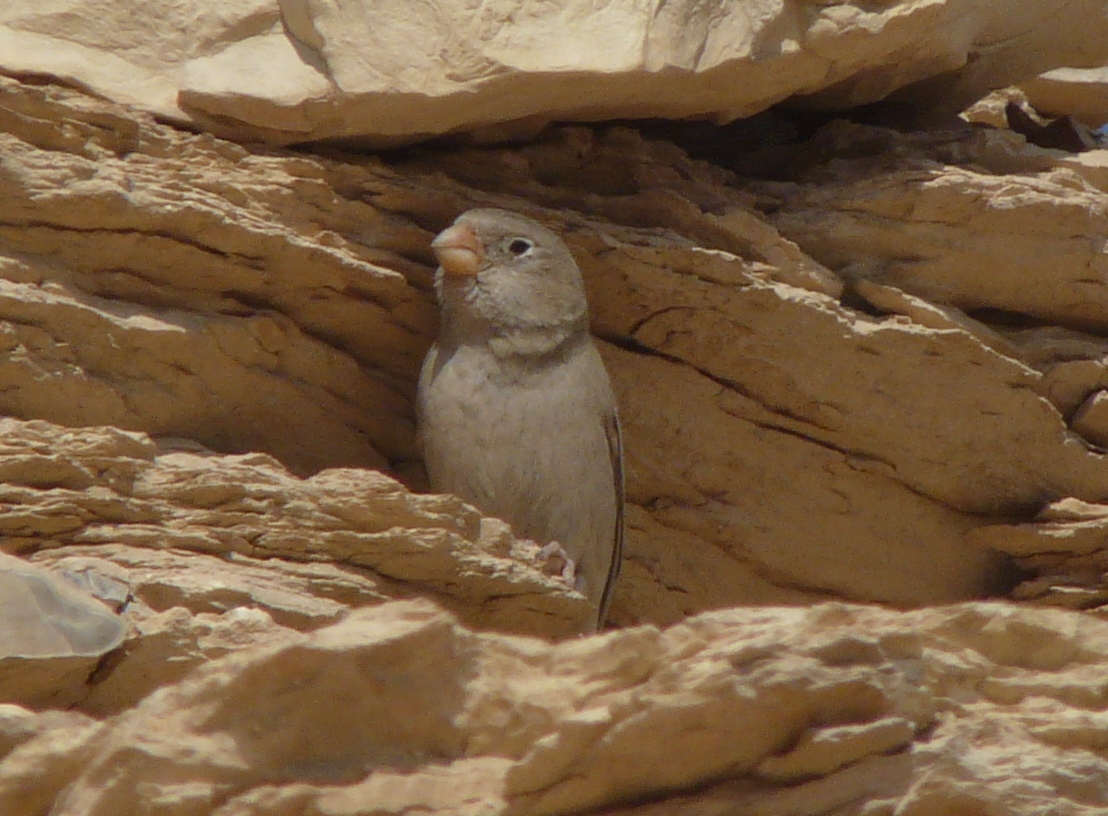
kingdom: Animalia
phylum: Chordata
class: Aves
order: Passeriformes
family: Fringillidae
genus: Bucanetes
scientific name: Bucanetes githagineus
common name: Trumpeter finch
